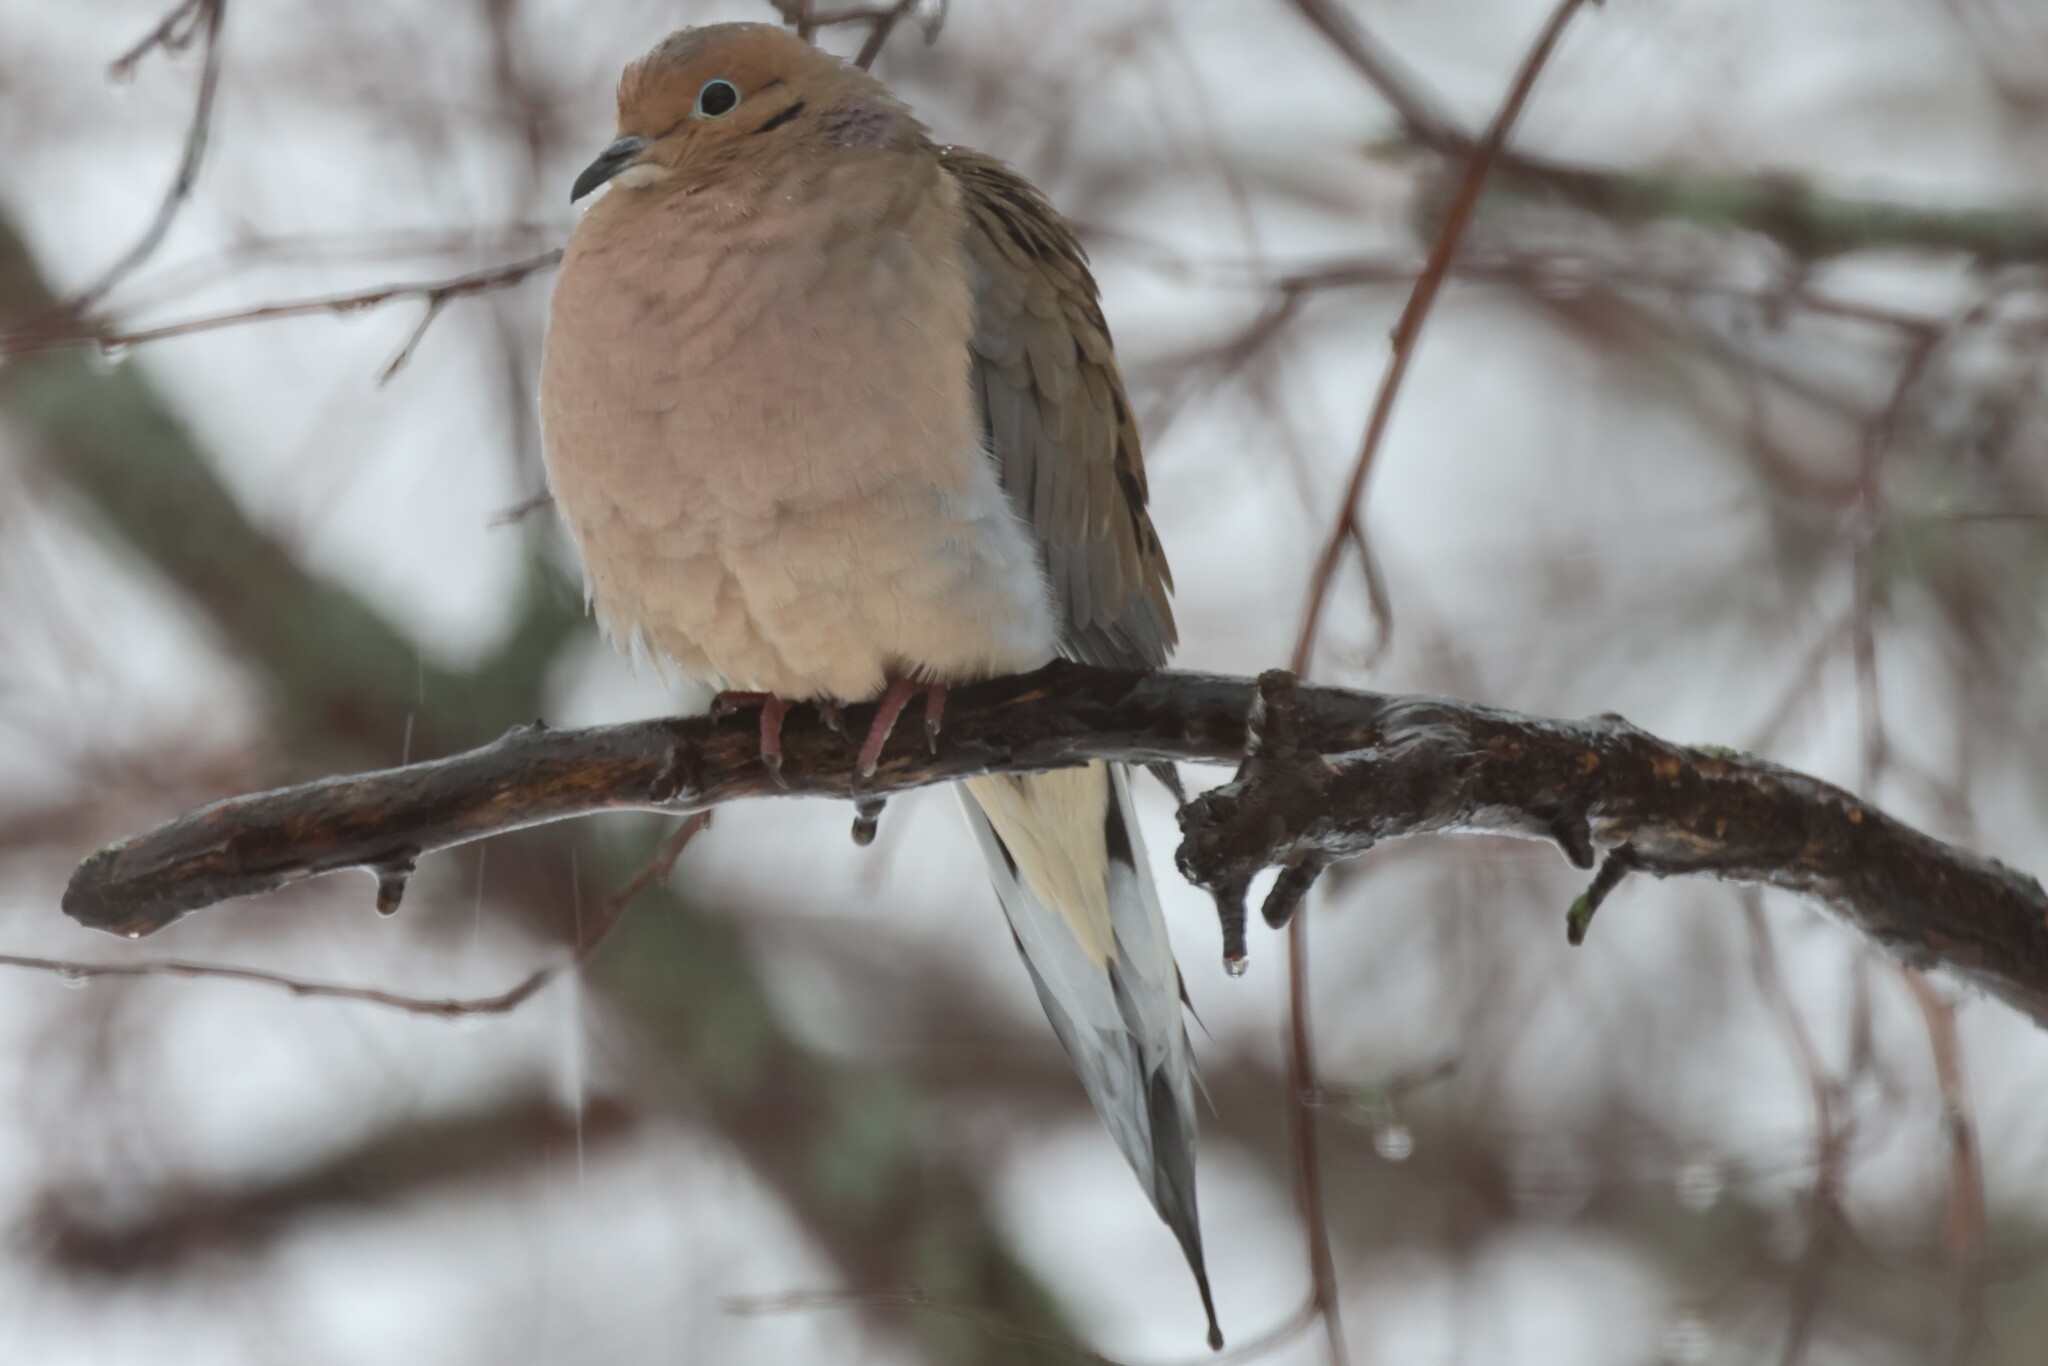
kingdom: Animalia
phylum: Chordata
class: Aves
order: Columbiformes
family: Columbidae
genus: Zenaida
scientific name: Zenaida macroura
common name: Mourning dove
